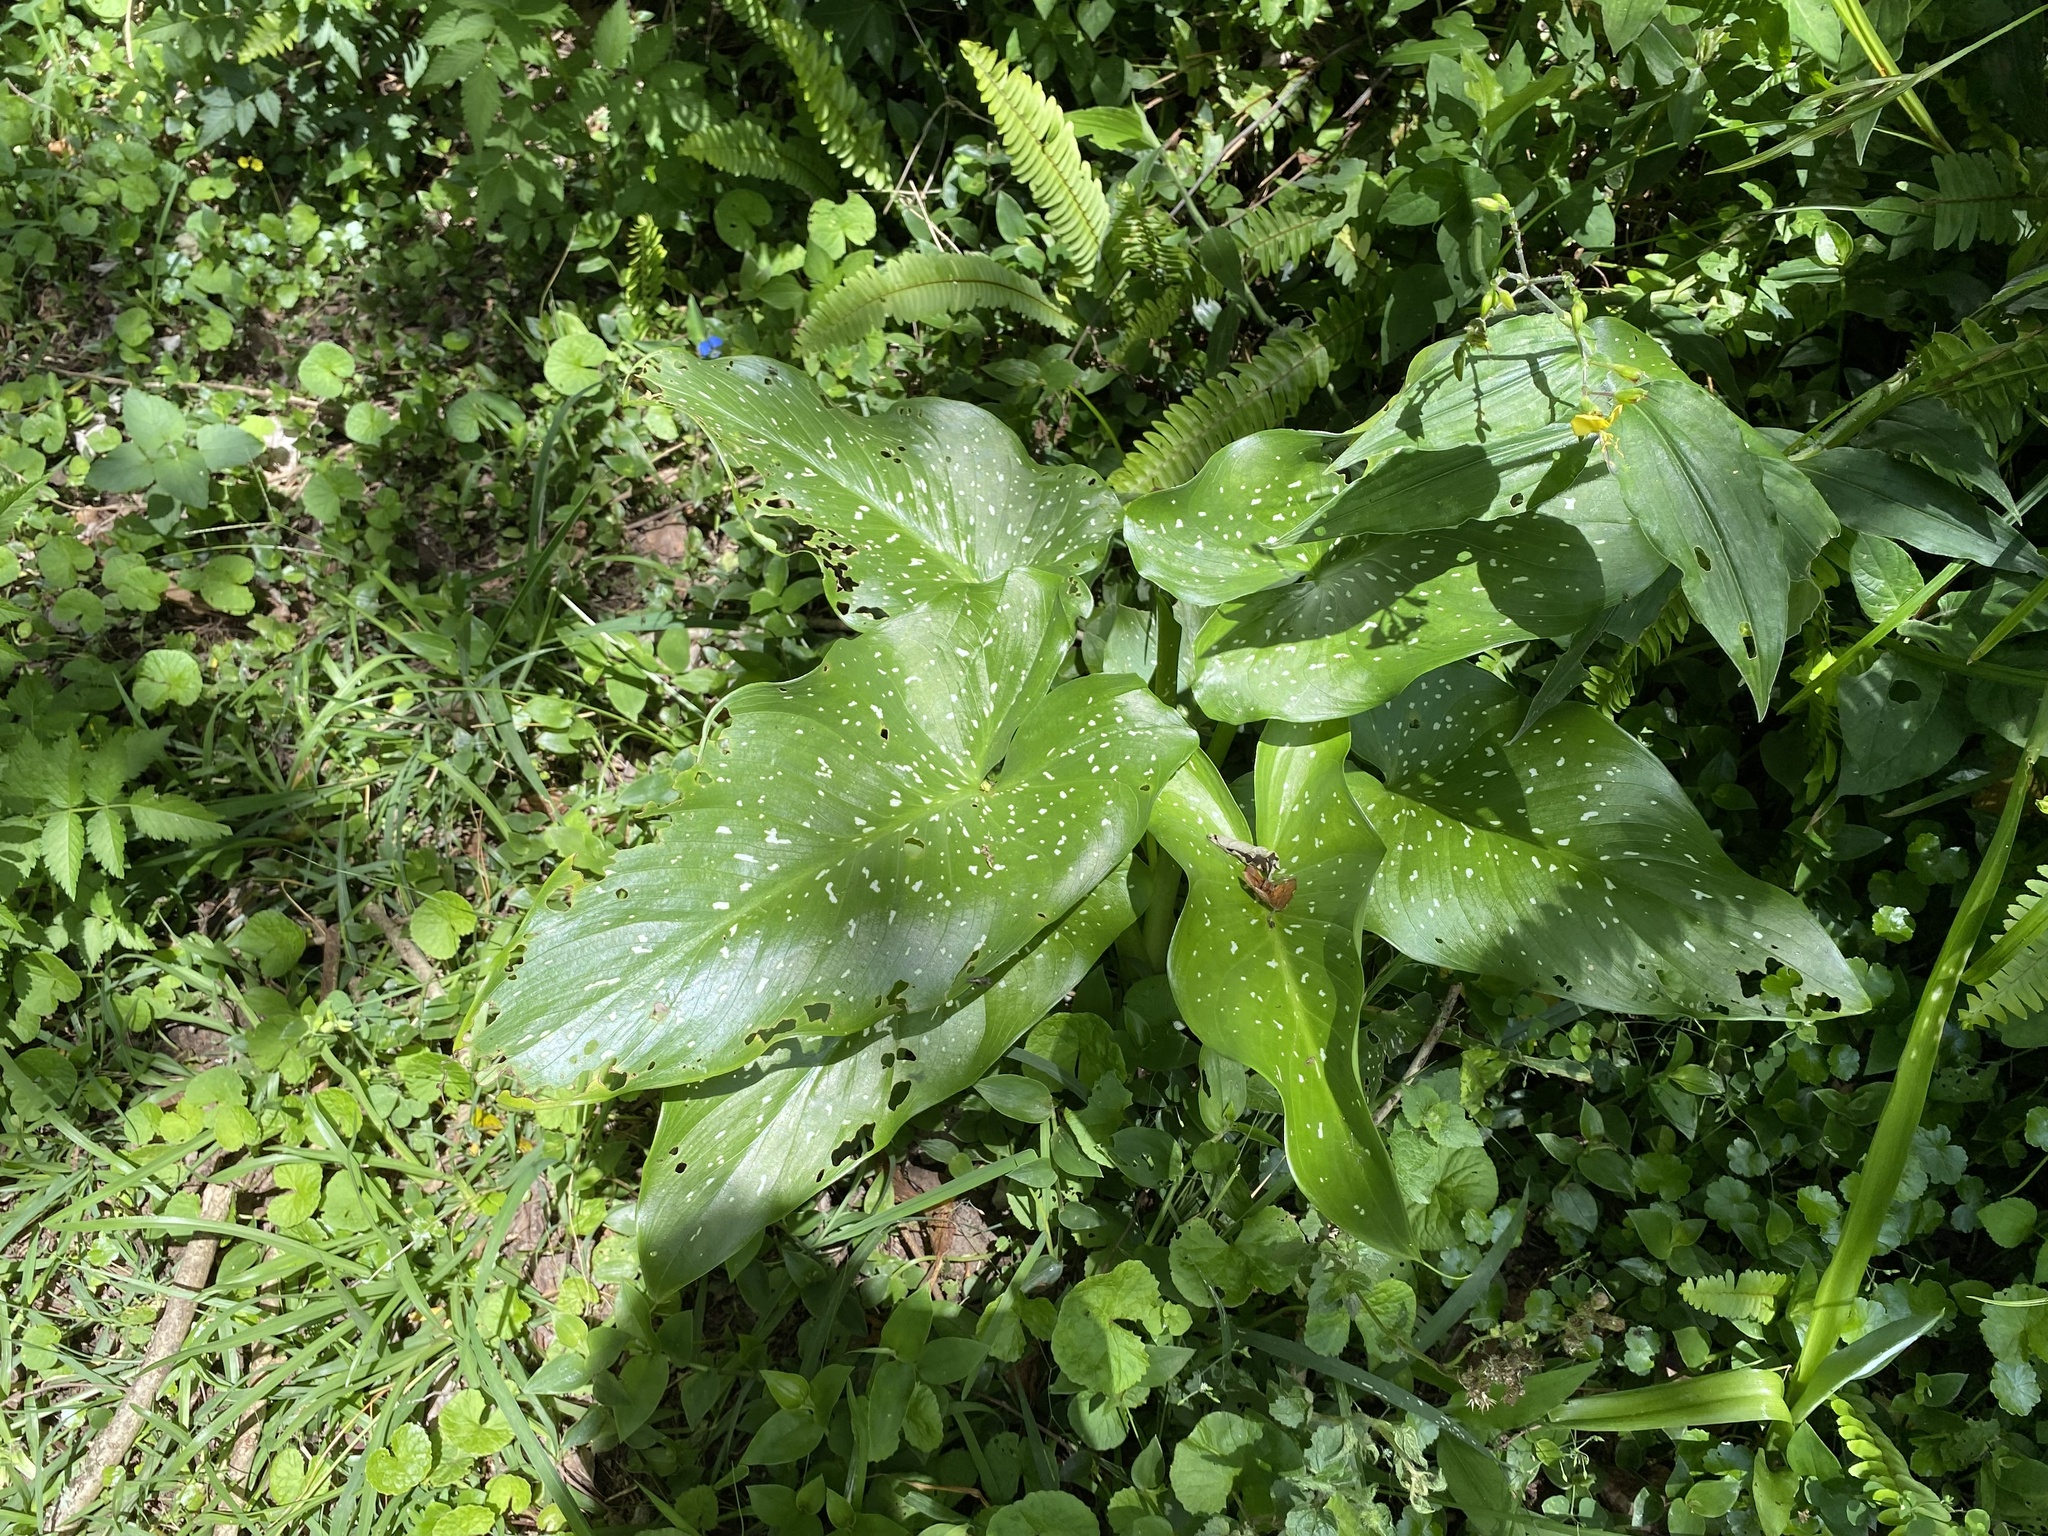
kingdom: Plantae
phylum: Tracheophyta
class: Liliopsida
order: Alismatales
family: Araceae
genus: Zantedeschia
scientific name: Zantedeschia albomaculata
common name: Spotted calla lily
